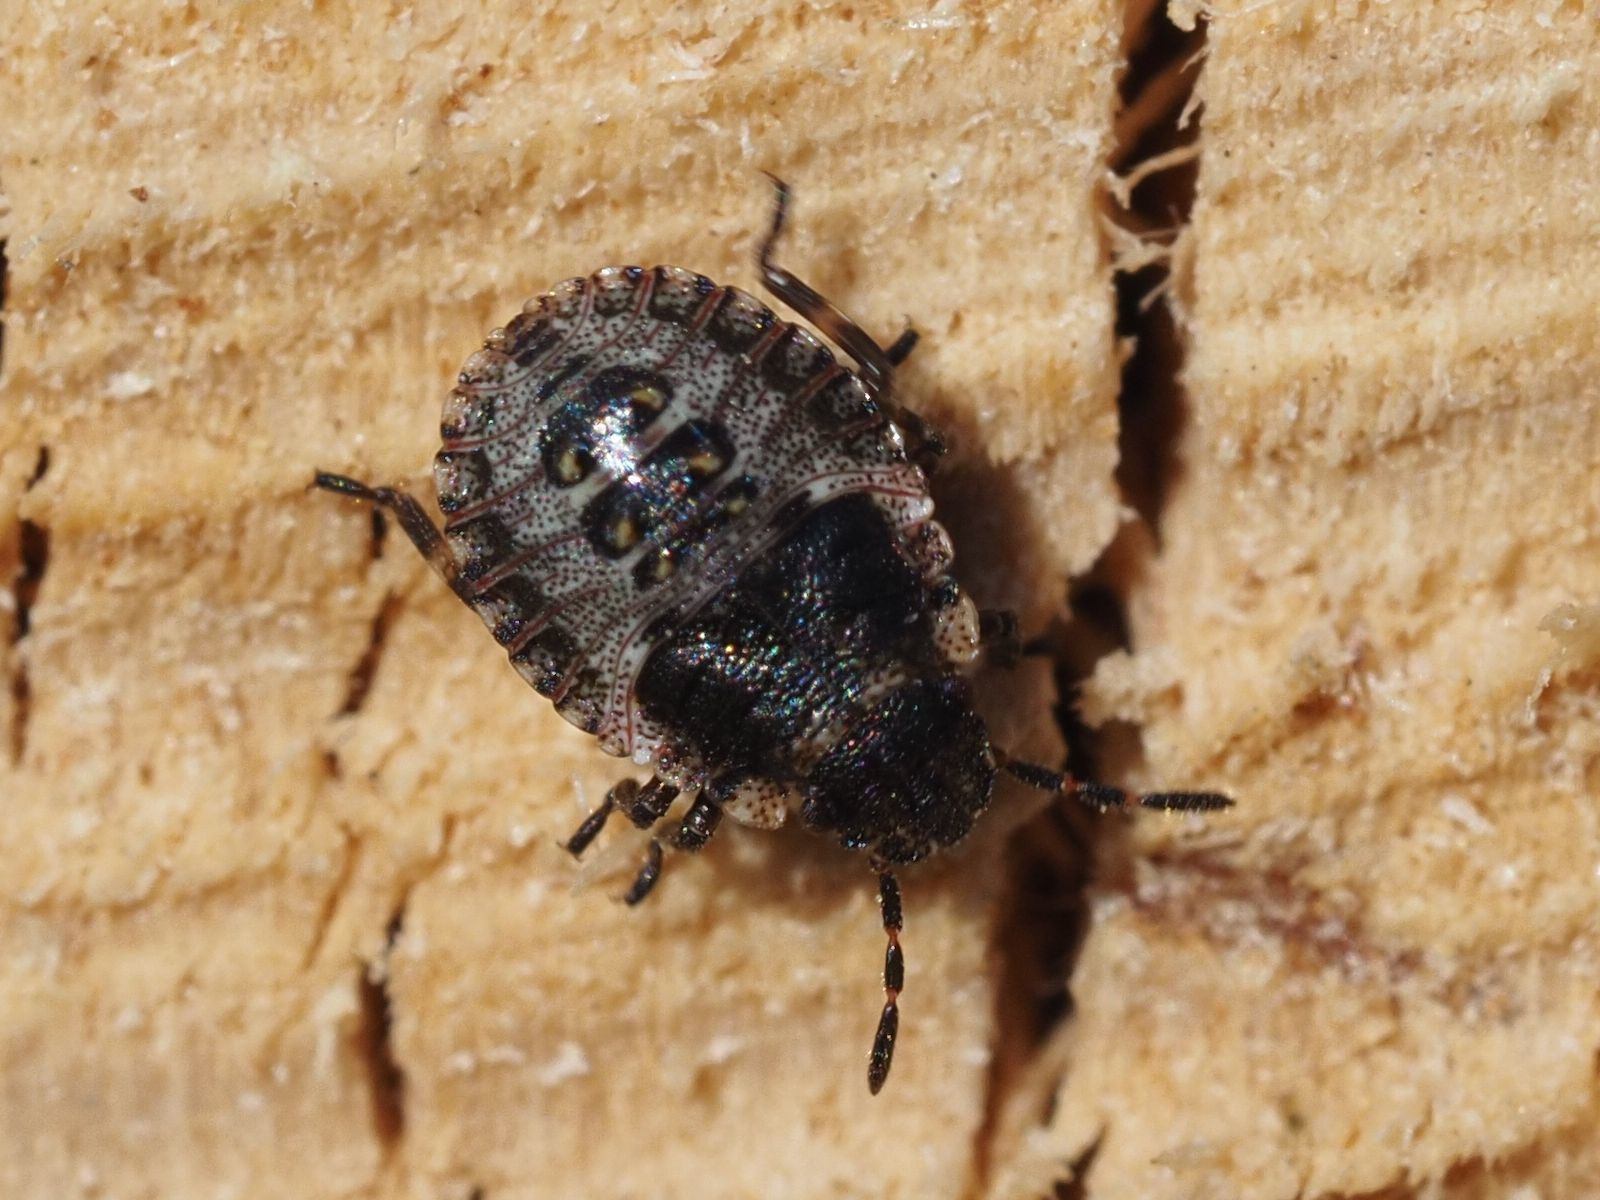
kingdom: Animalia
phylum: Arthropoda
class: Insecta
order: Hemiptera
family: Pentatomidae
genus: Pentatoma
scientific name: Pentatoma rufipes
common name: Forest bug
